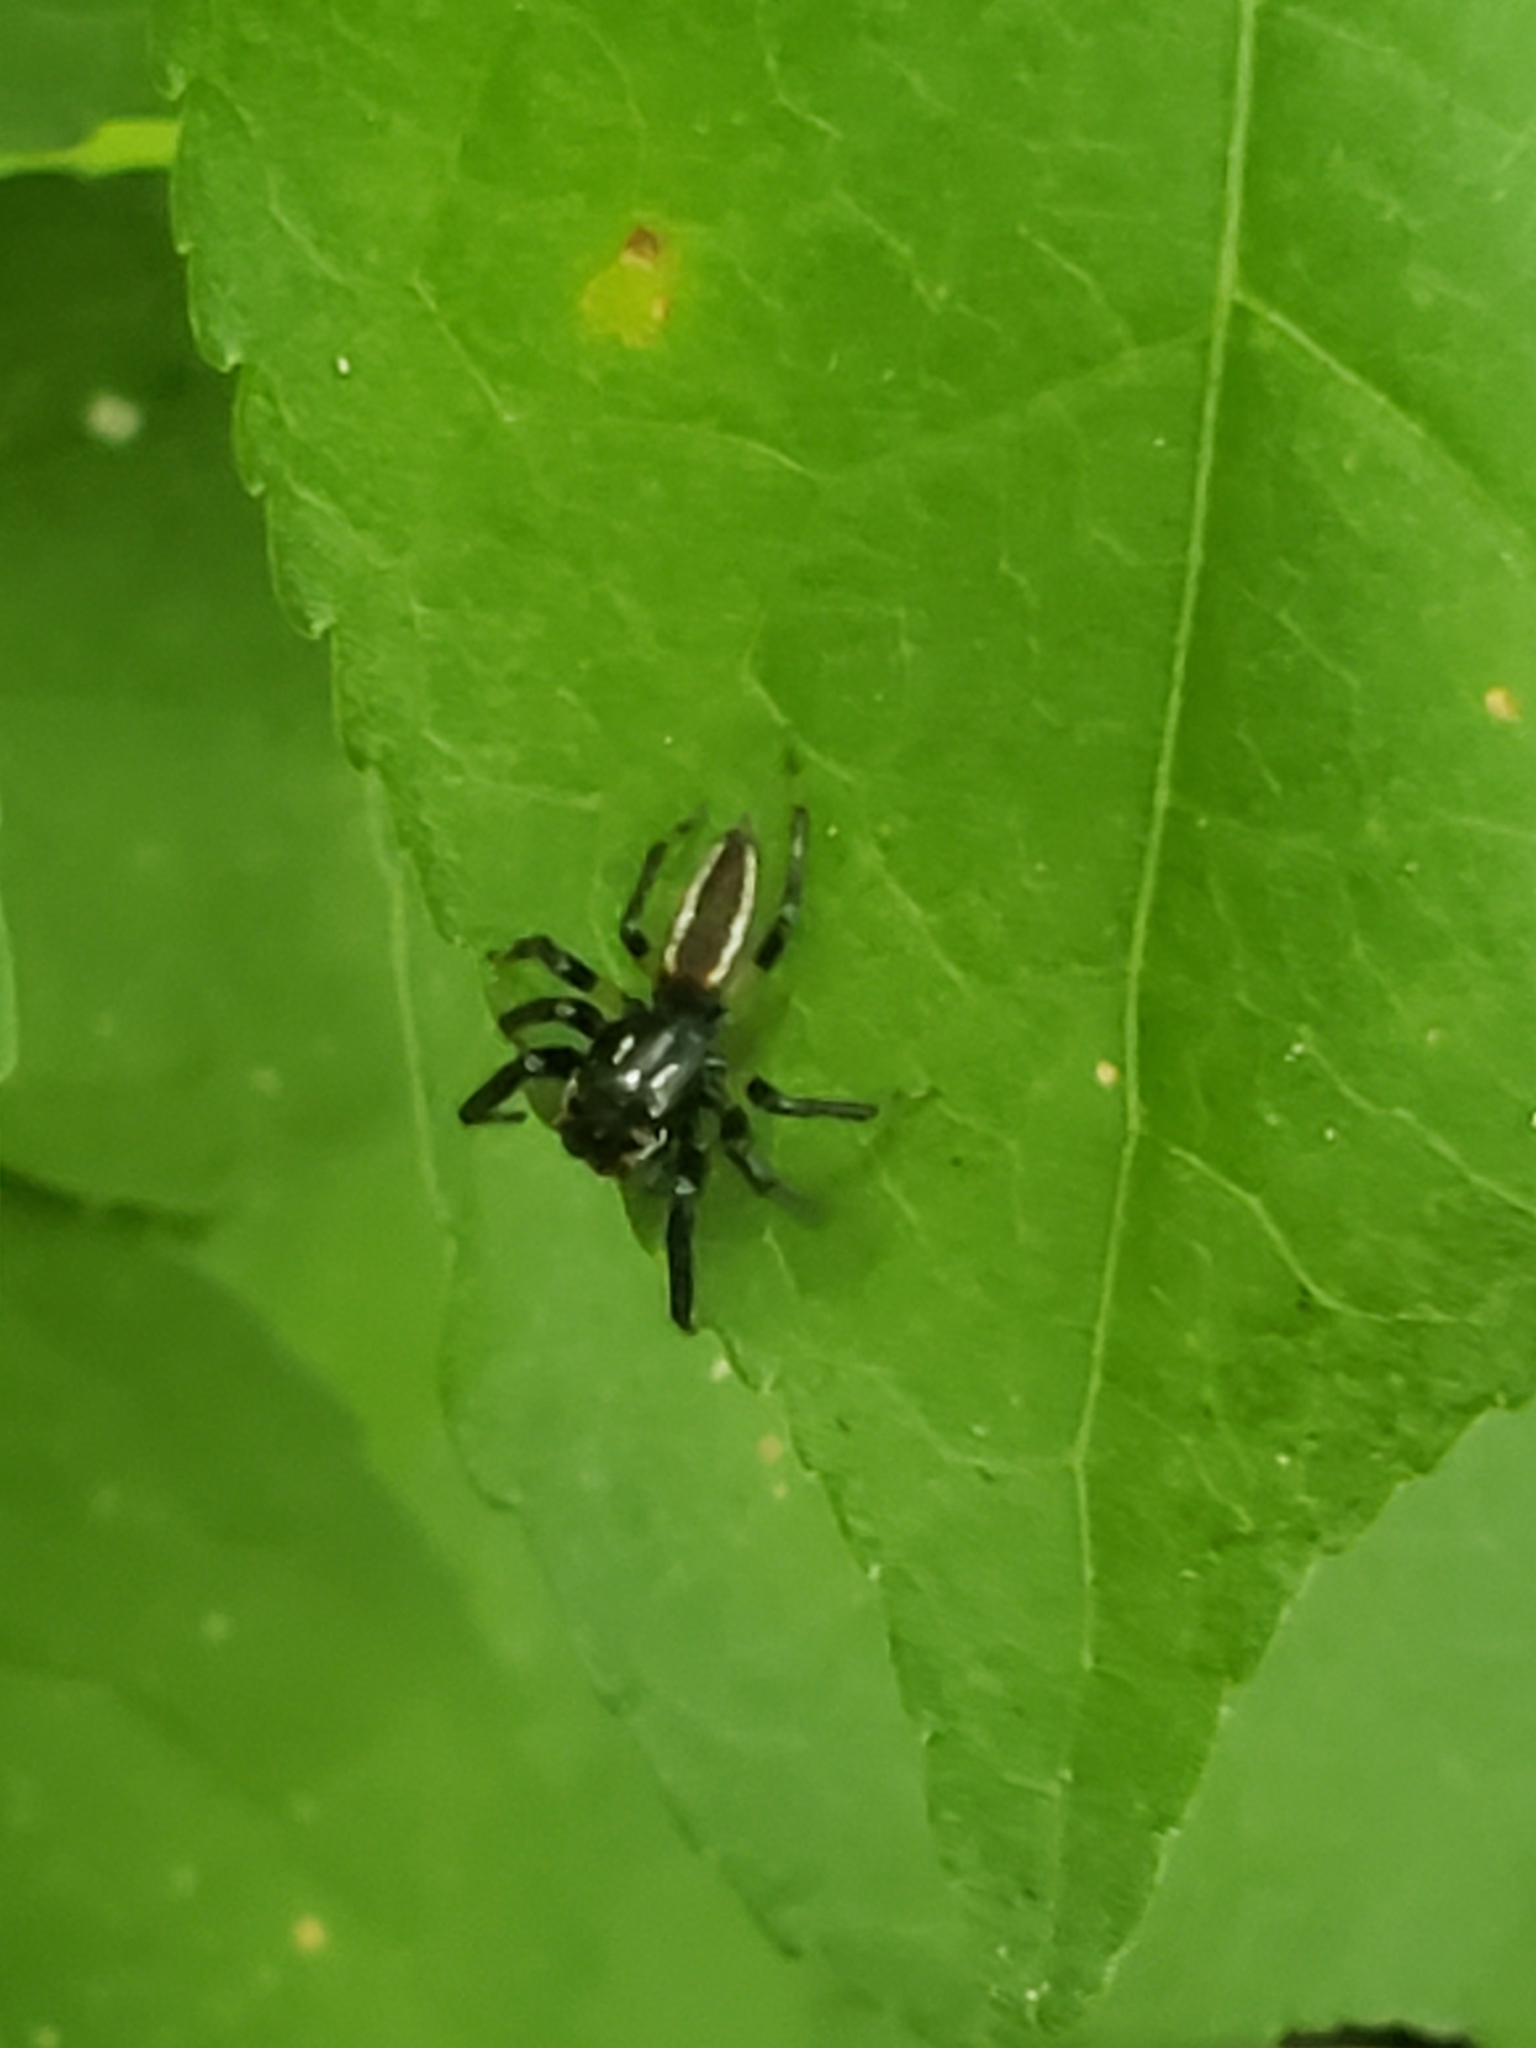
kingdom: Animalia
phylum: Arthropoda
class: Arachnida
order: Araneae
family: Salticidae
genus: Colonus
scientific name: Colonus sylvanus
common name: Jumping spiders
